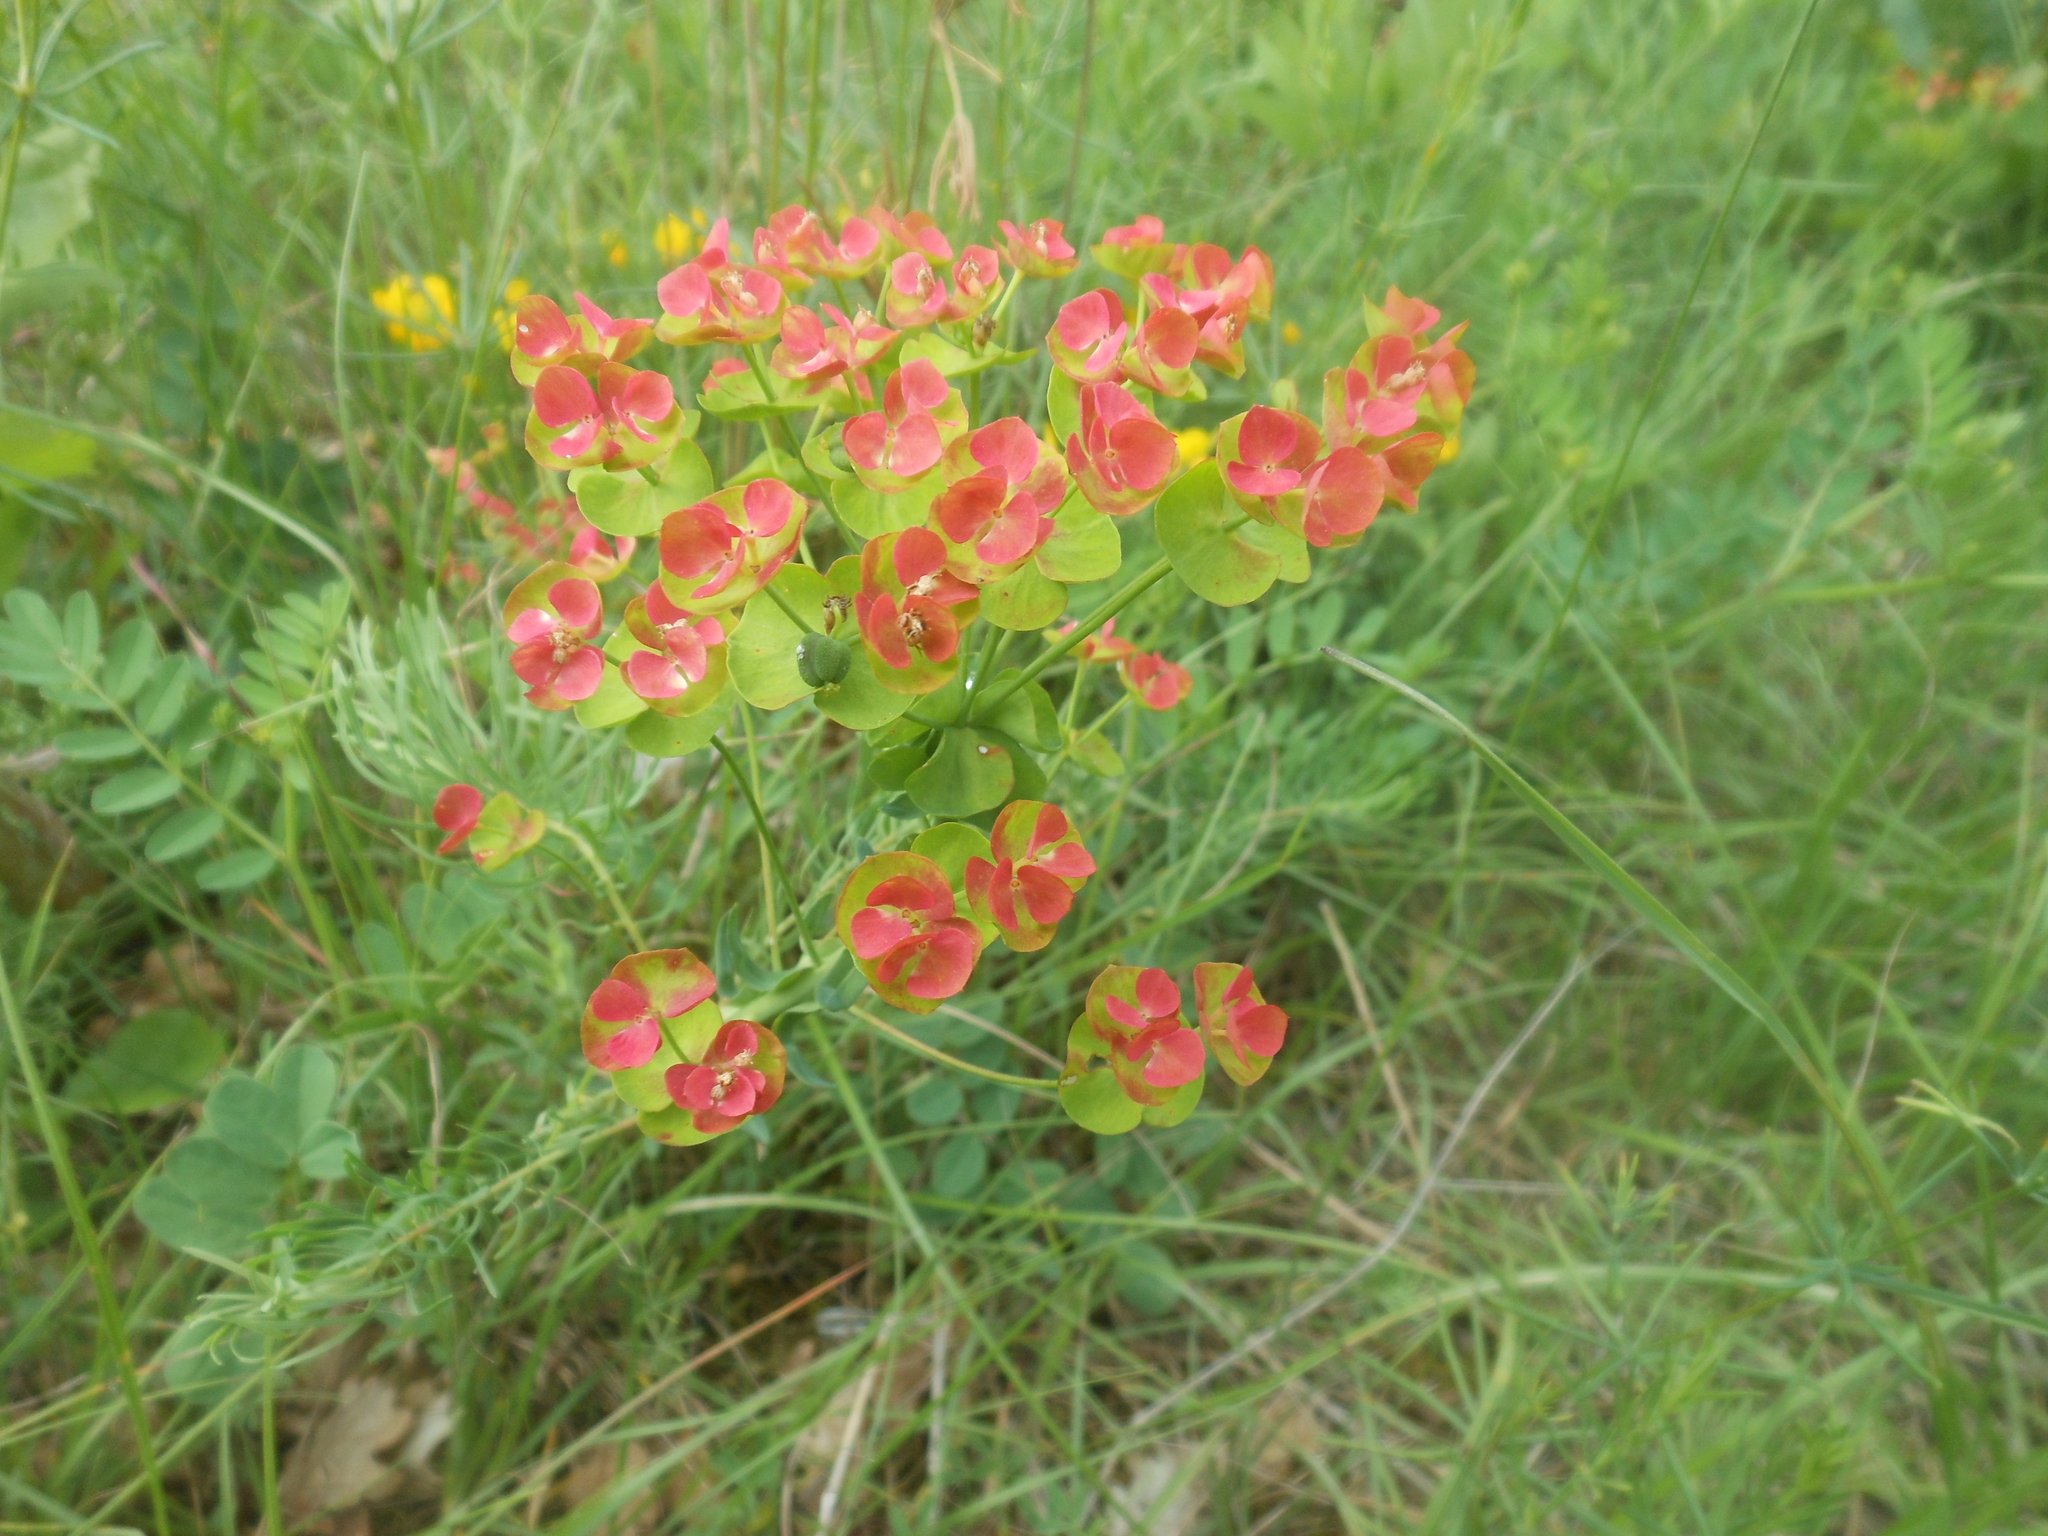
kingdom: Plantae
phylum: Tracheophyta
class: Magnoliopsida
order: Malpighiales
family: Euphorbiaceae
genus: Euphorbia
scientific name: Euphorbia cyparissias
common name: Cypress spurge
